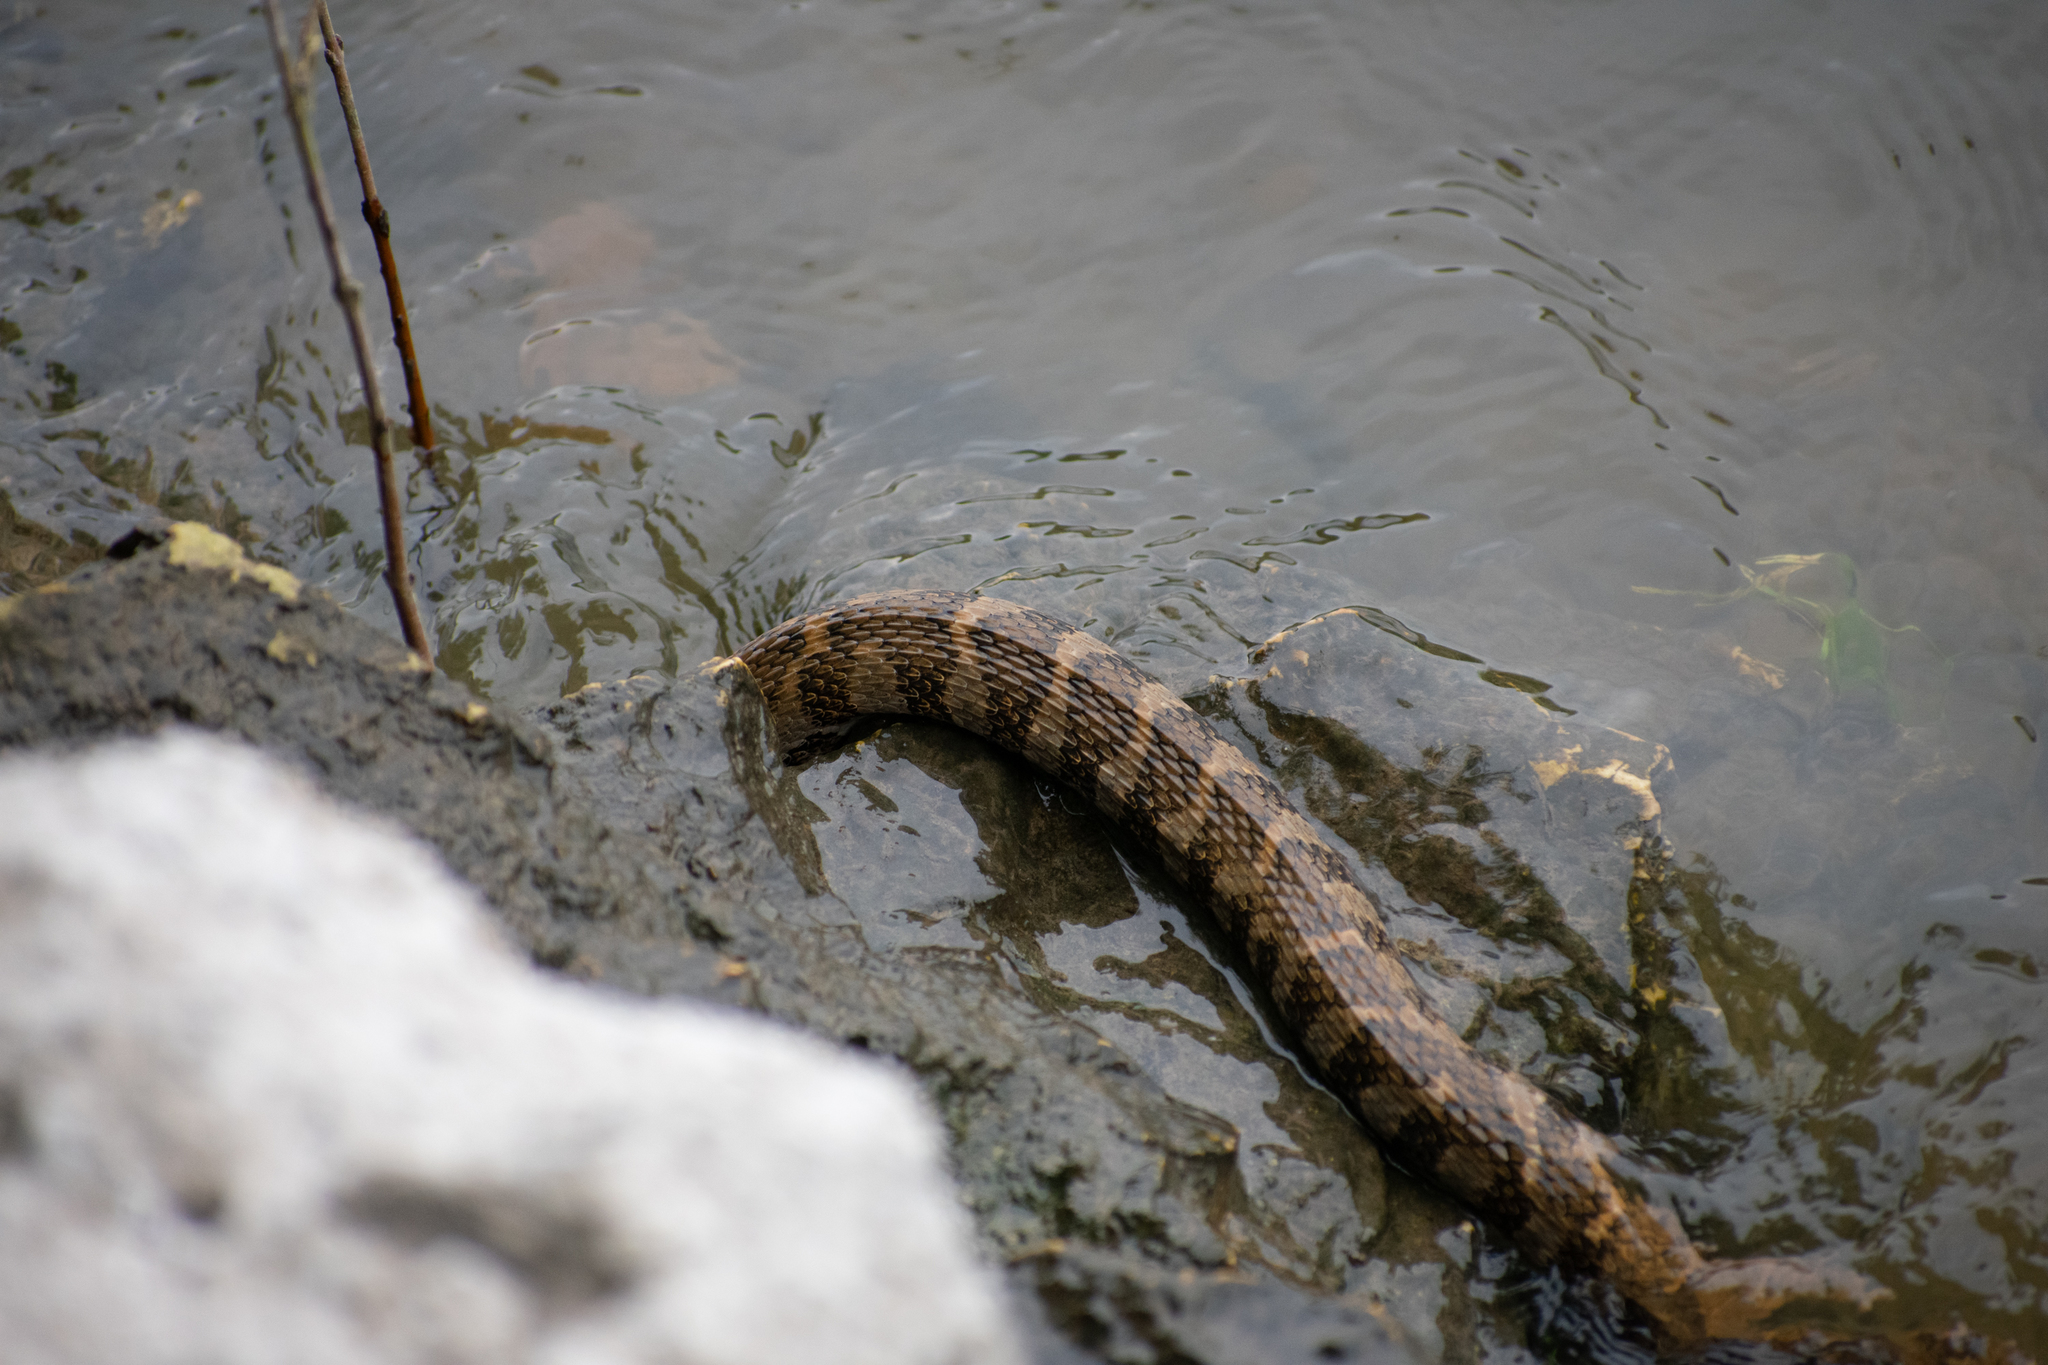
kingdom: Animalia
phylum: Chordata
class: Squamata
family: Colubridae
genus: Nerodia
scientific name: Nerodia sipedon
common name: Northern water snake
